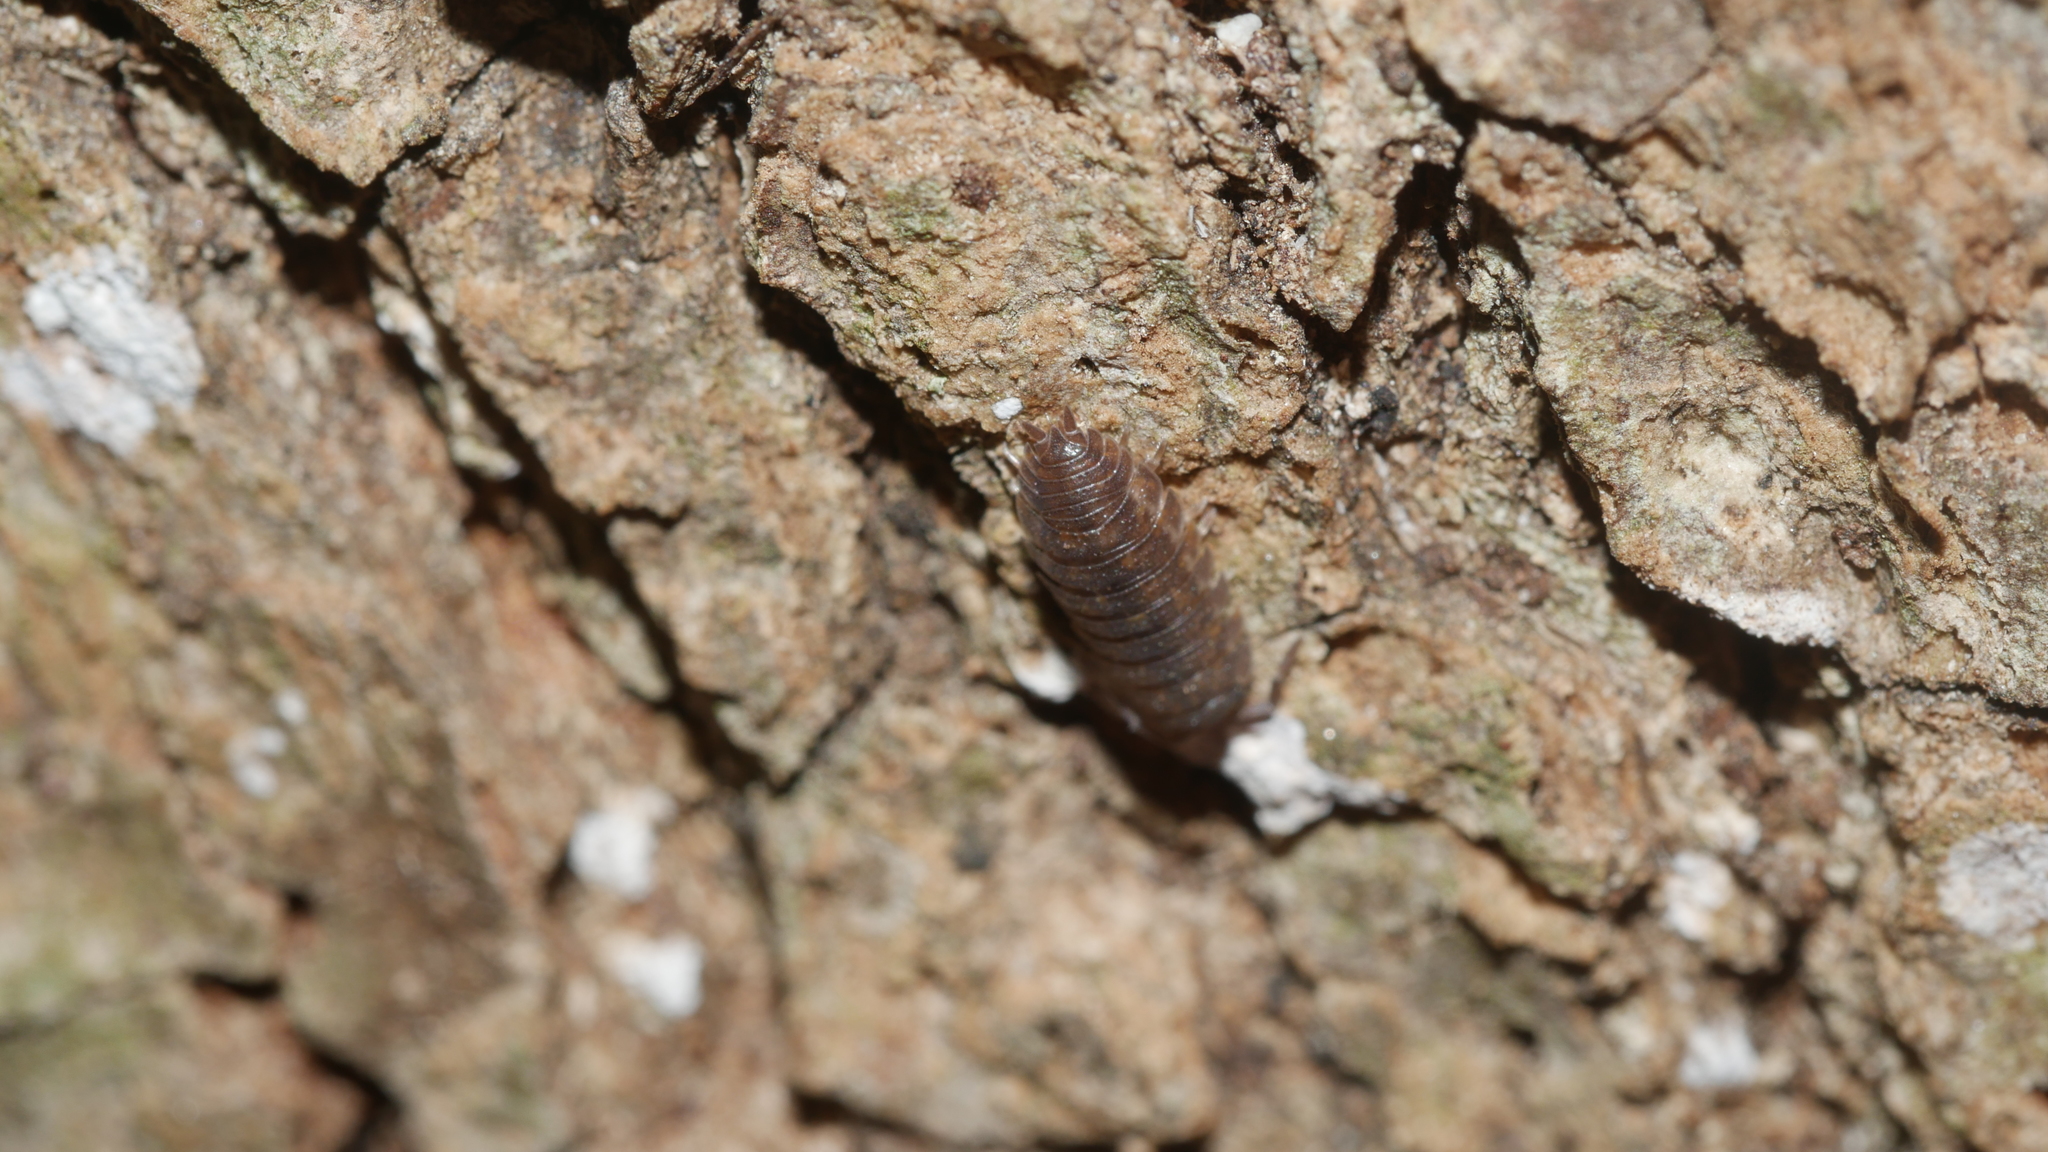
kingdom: Animalia
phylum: Arthropoda
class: Malacostraca
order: Isopoda
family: Porcellionidae
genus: Porcellio
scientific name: Porcellio scaber
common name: Common rough woodlouse
